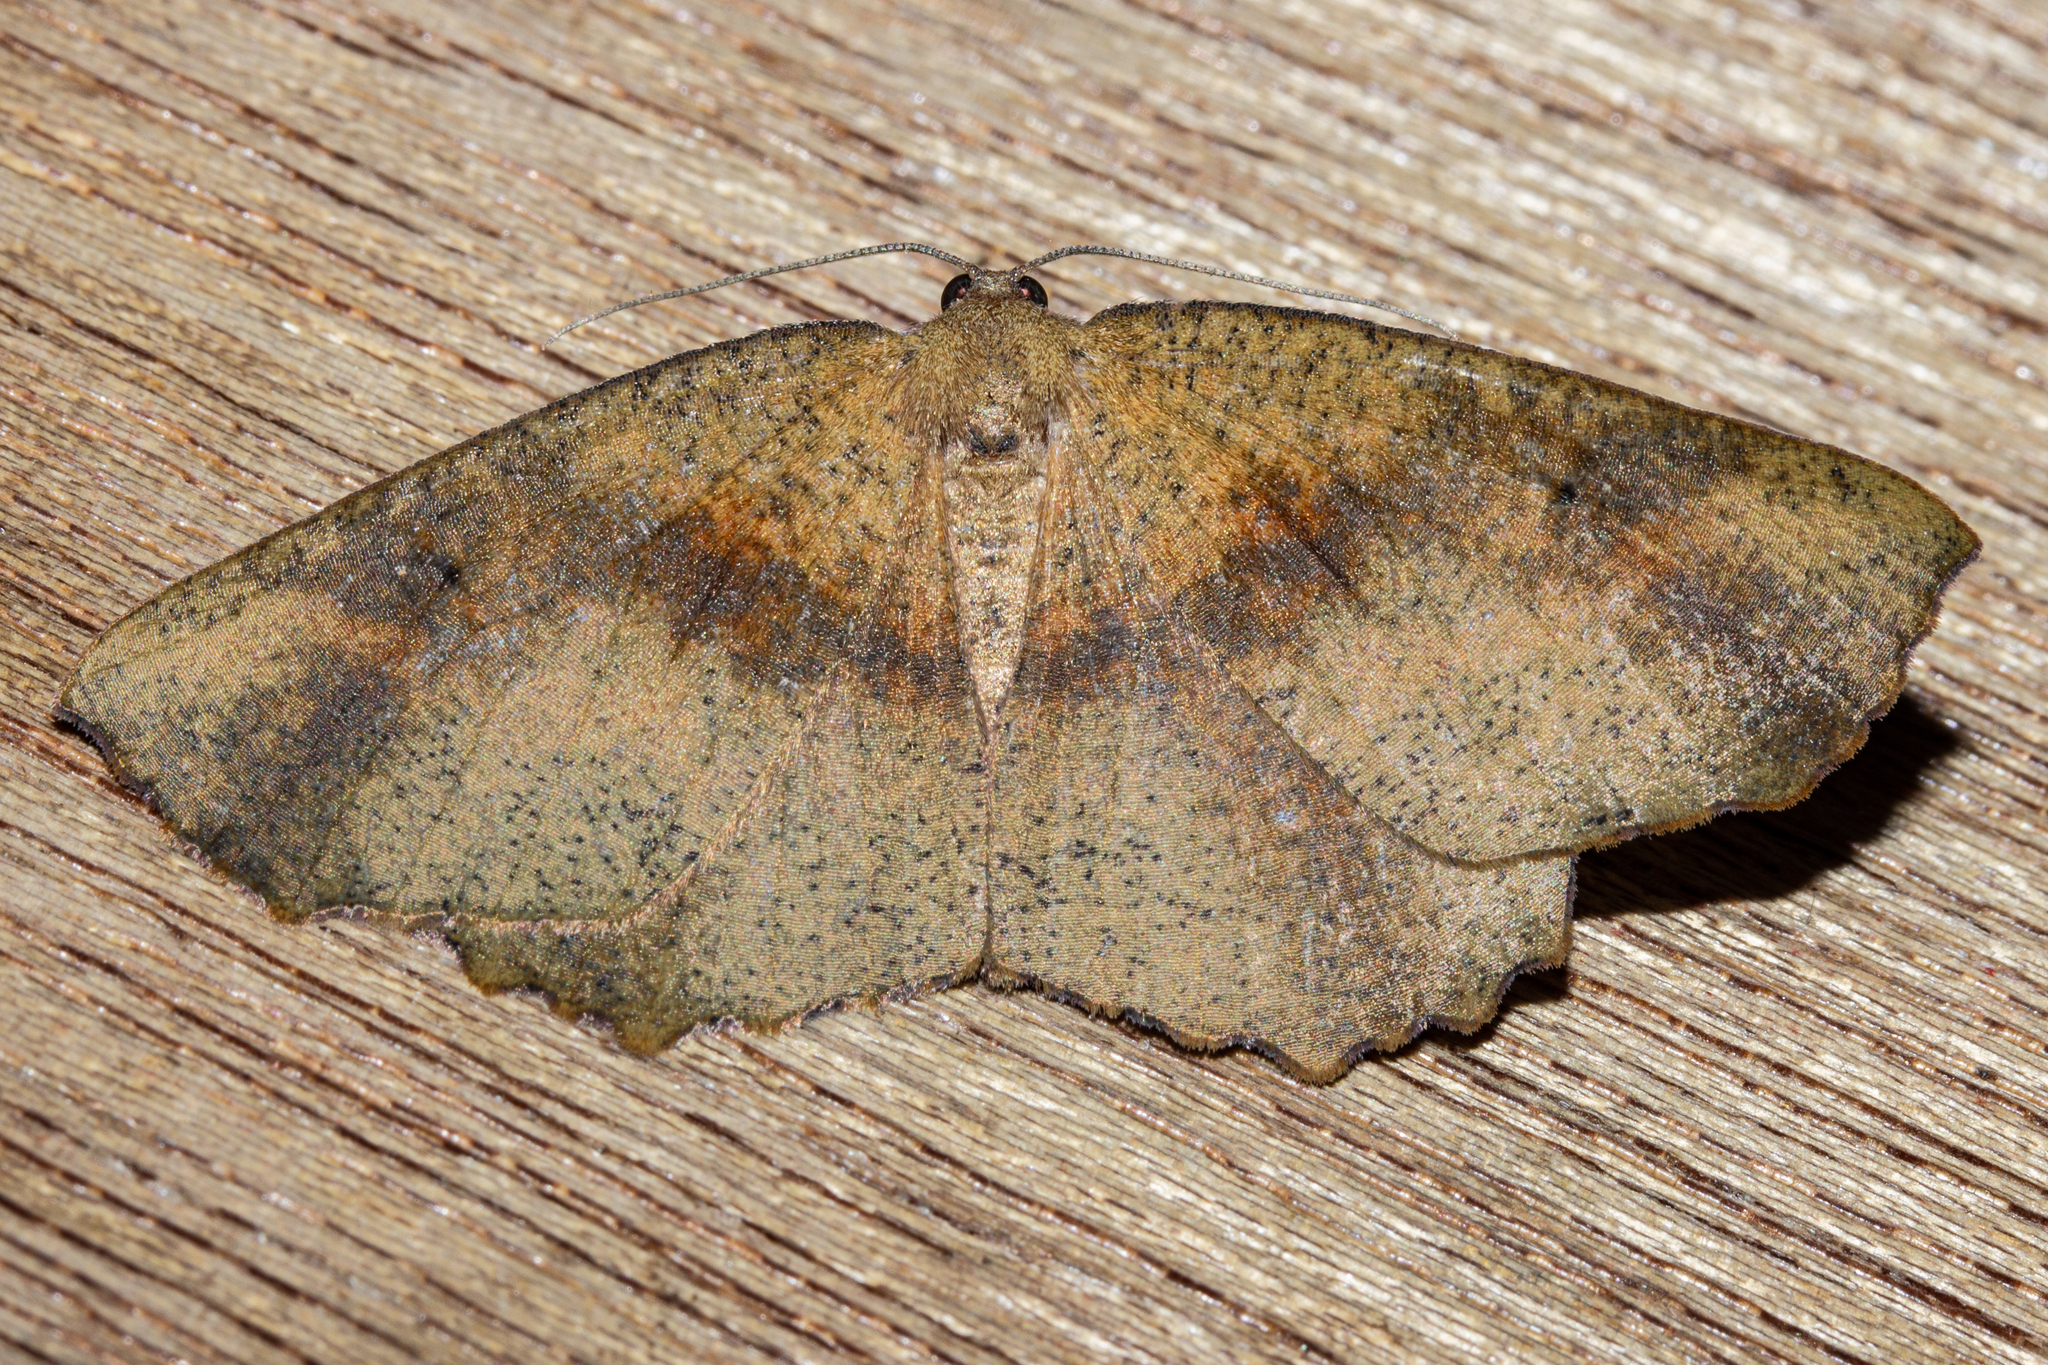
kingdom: Animalia
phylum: Arthropoda
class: Insecta
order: Lepidoptera
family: Geometridae
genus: Xyridacma
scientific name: Xyridacma ustaria
